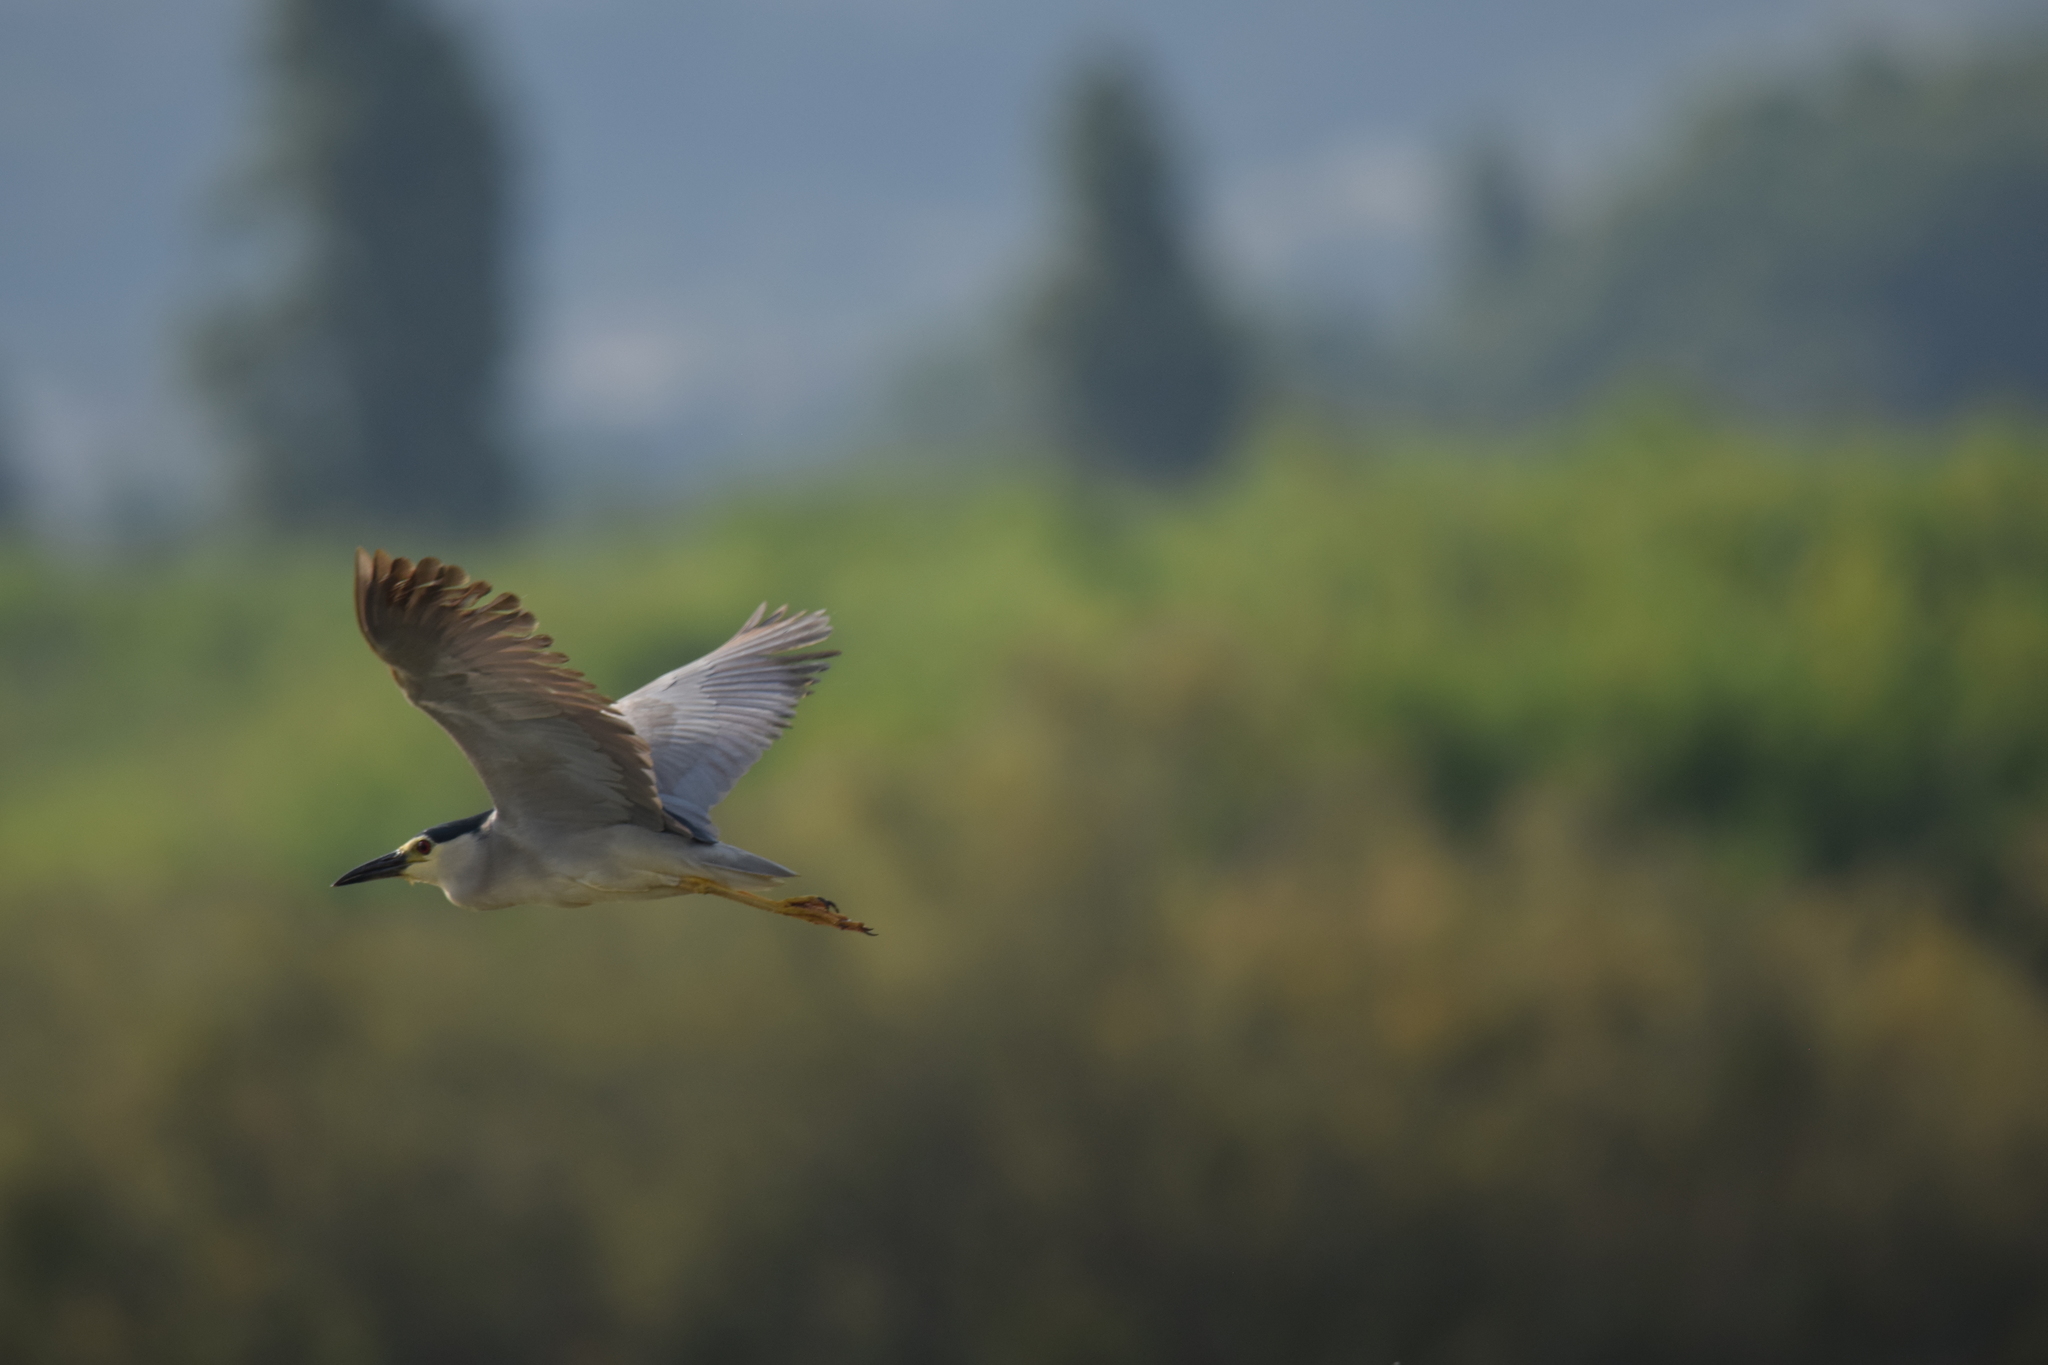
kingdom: Animalia
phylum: Chordata
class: Aves
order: Pelecaniformes
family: Ardeidae
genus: Nycticorax
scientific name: Nycticorax nycticorax
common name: Black-crowned night heron
